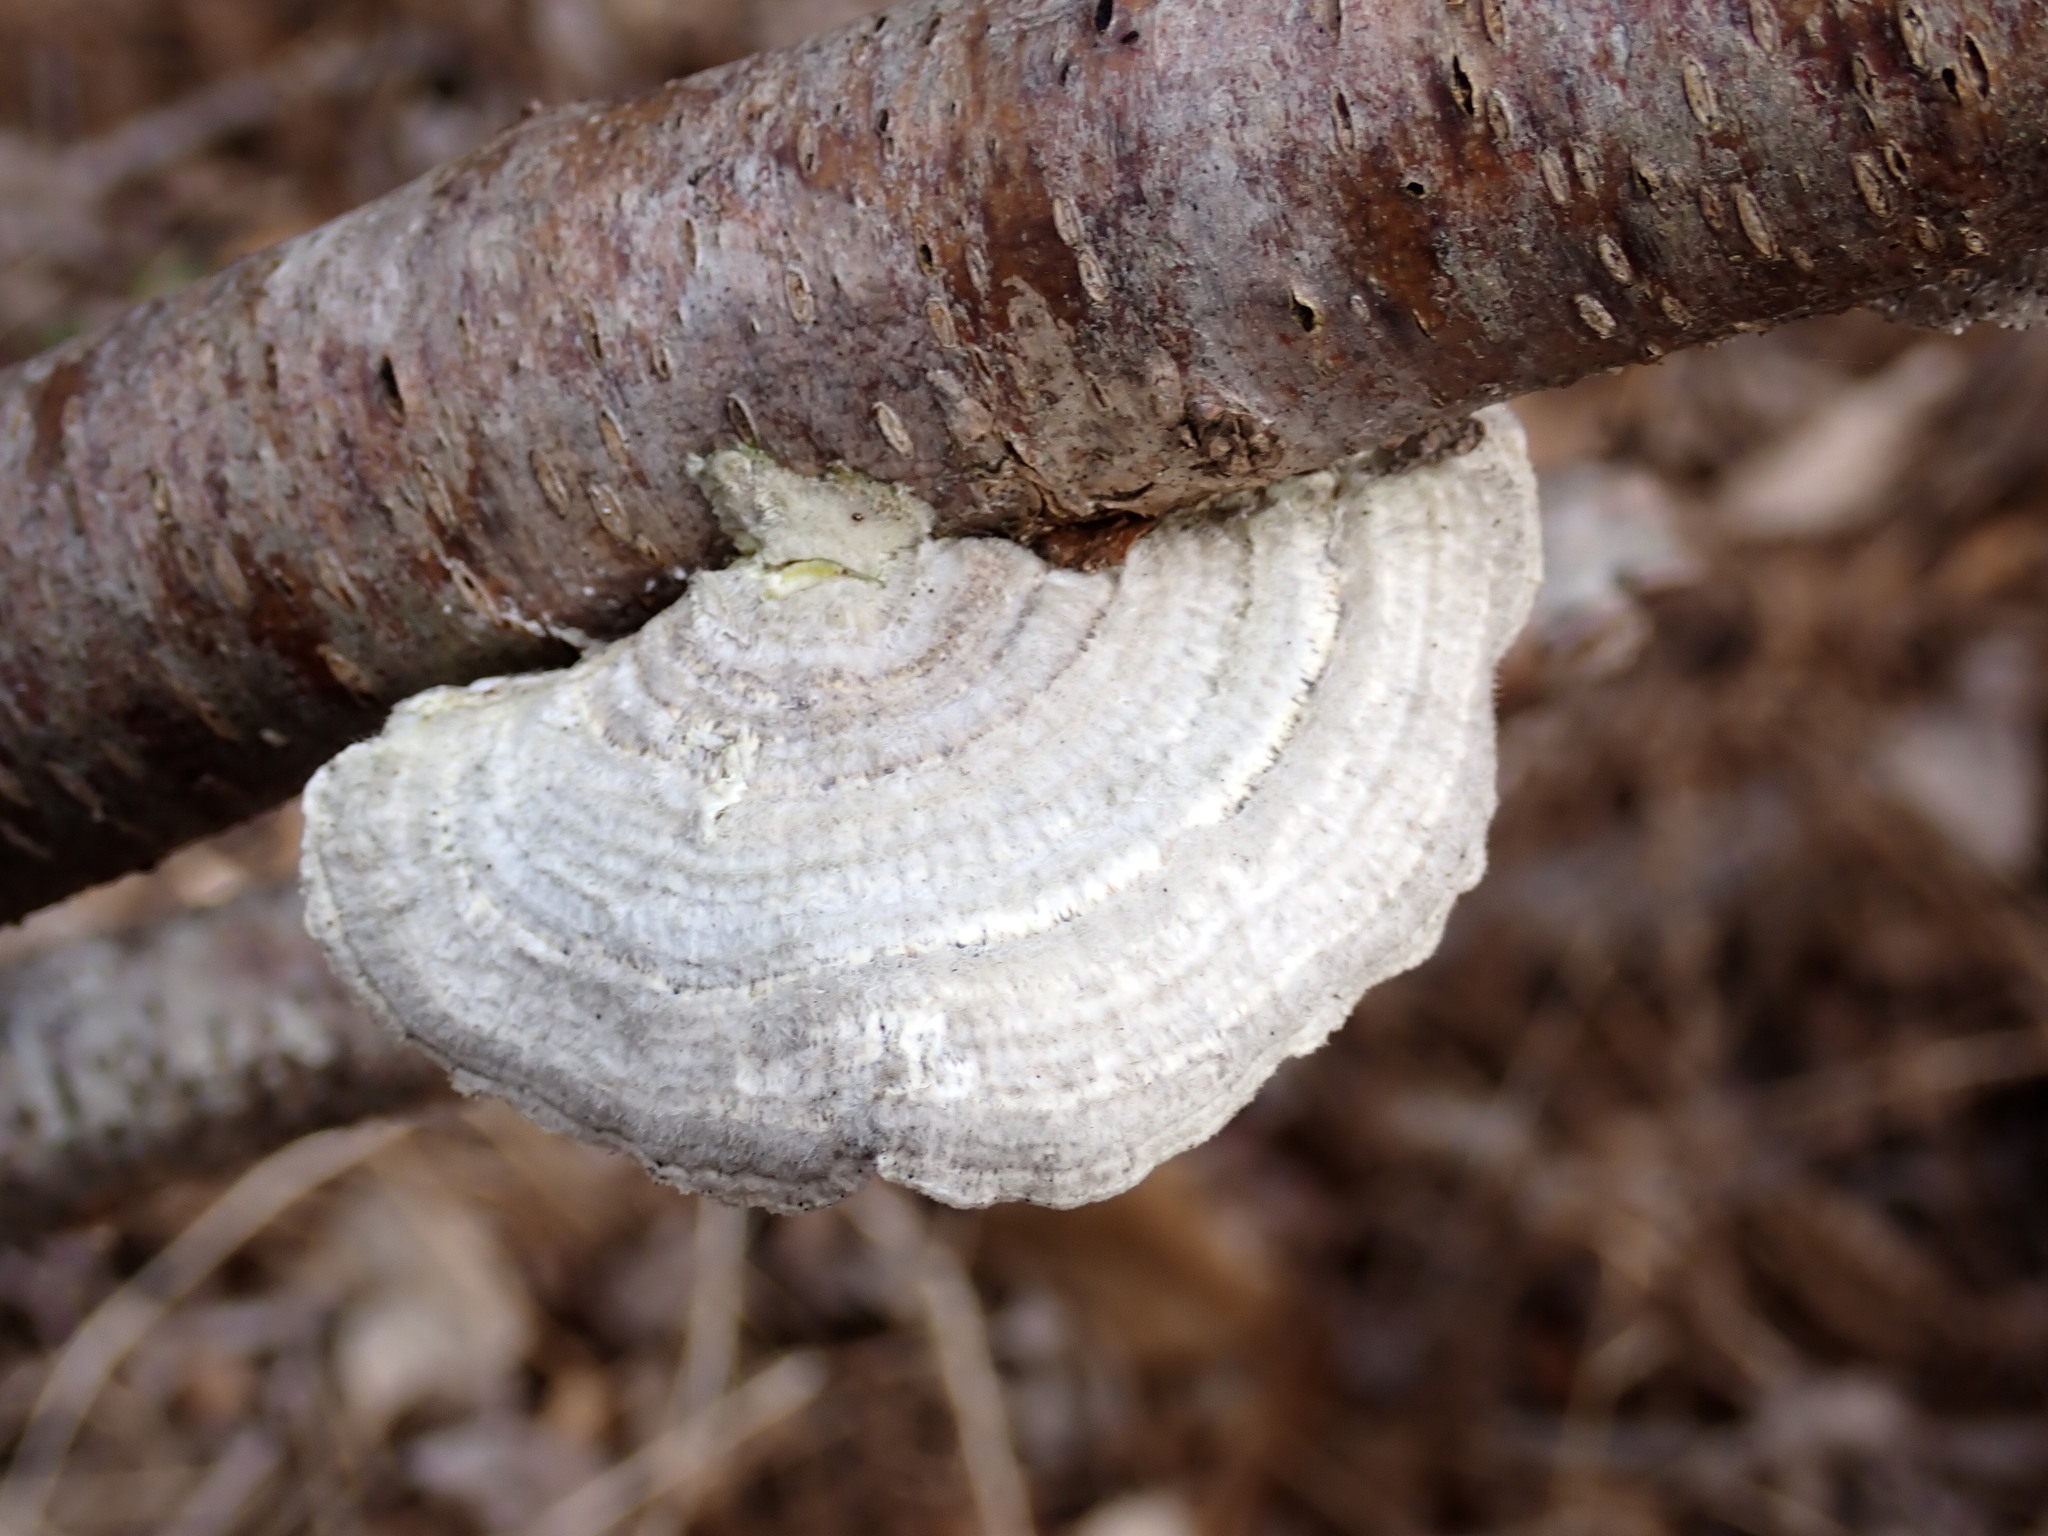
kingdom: Fungi
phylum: Basidiomycota
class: Agaricomycetes
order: Polyporales
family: Polyporaceae
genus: Lenzites
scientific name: Lenzites betulinus
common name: Birch mazegill
